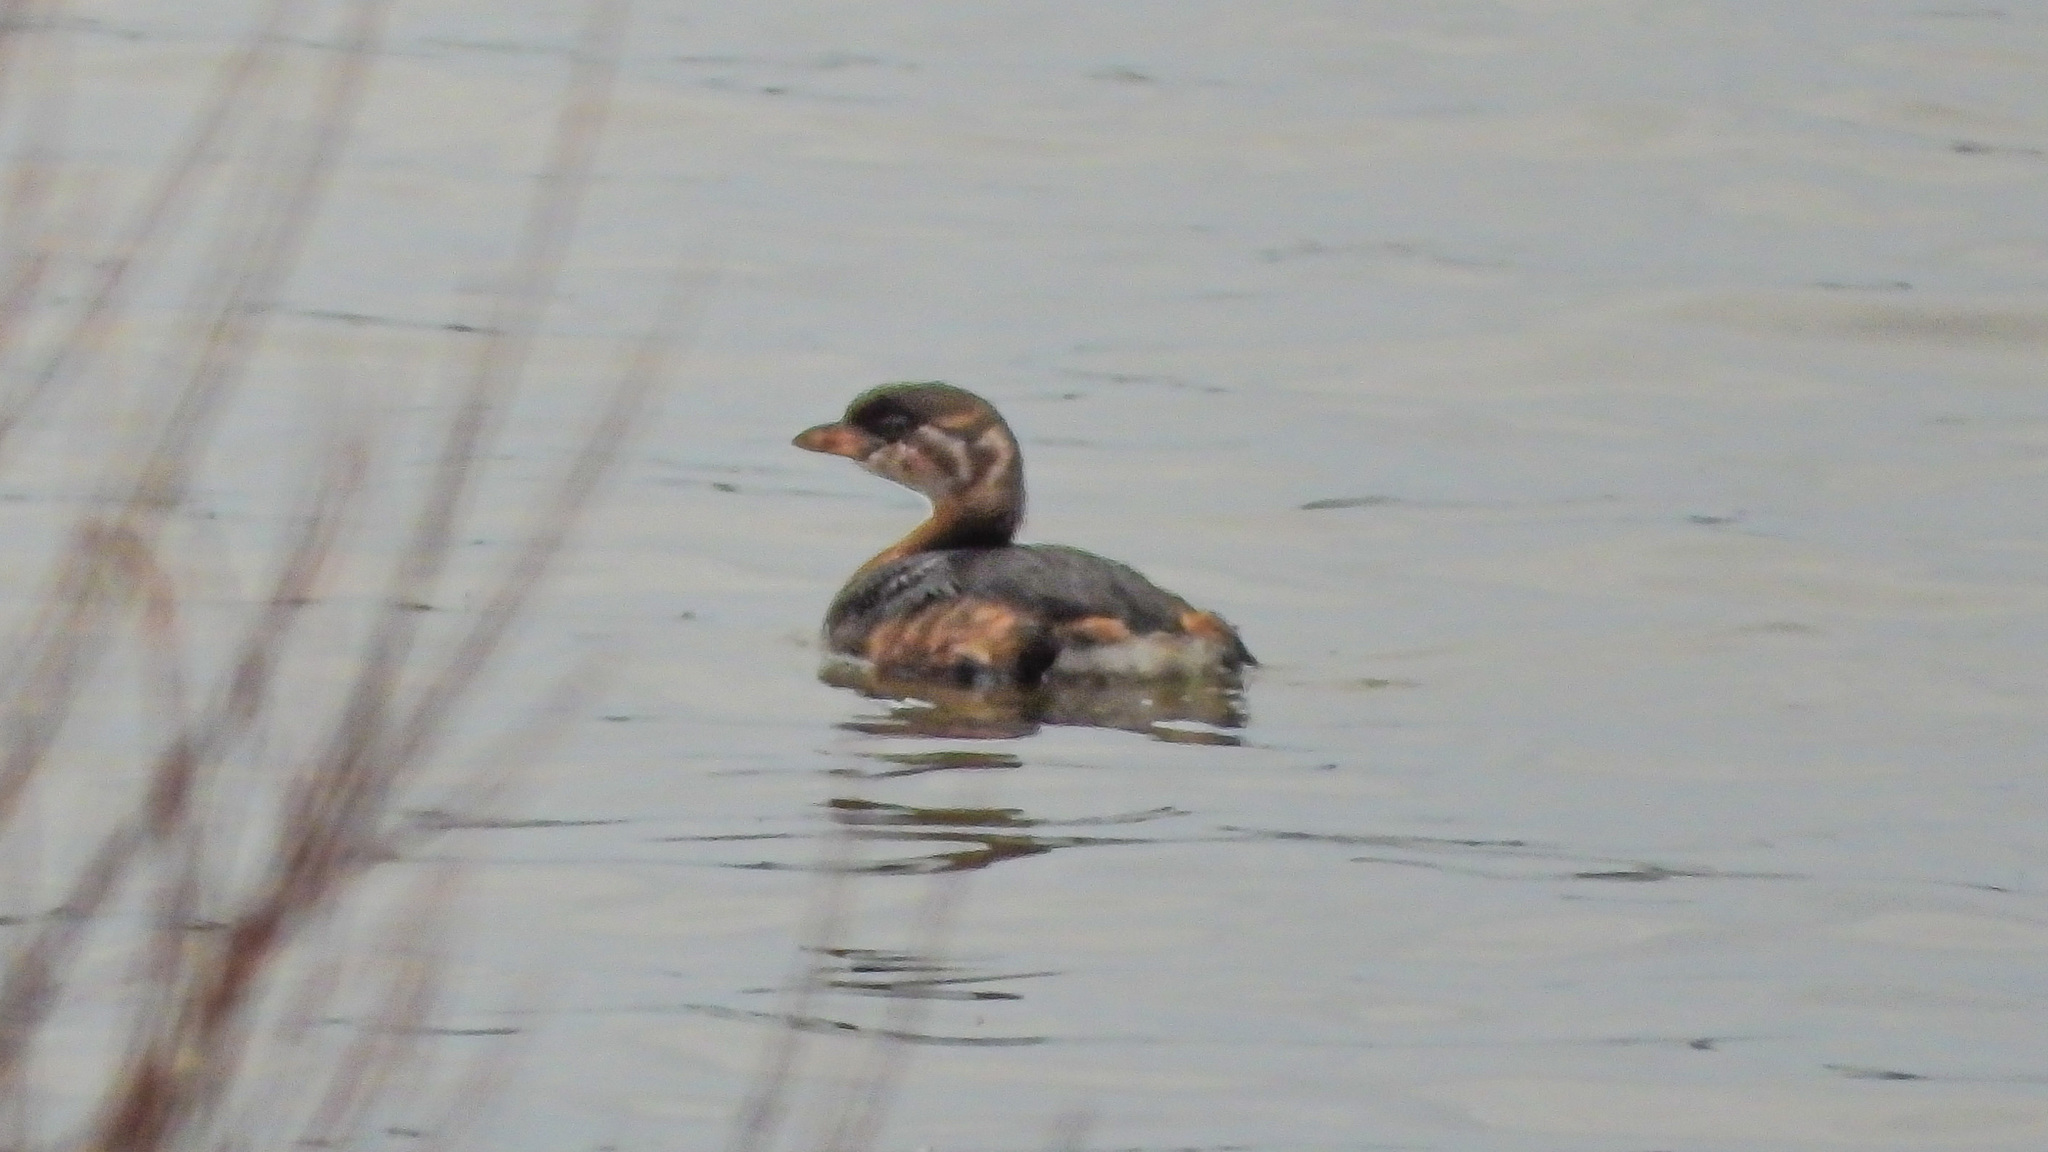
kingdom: Animalia
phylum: Chordata
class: Aves
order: Podicipediformes
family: Podicipedidae
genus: Podilymbus
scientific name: Podilymbus podiceps
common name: Pied-billed grebe
